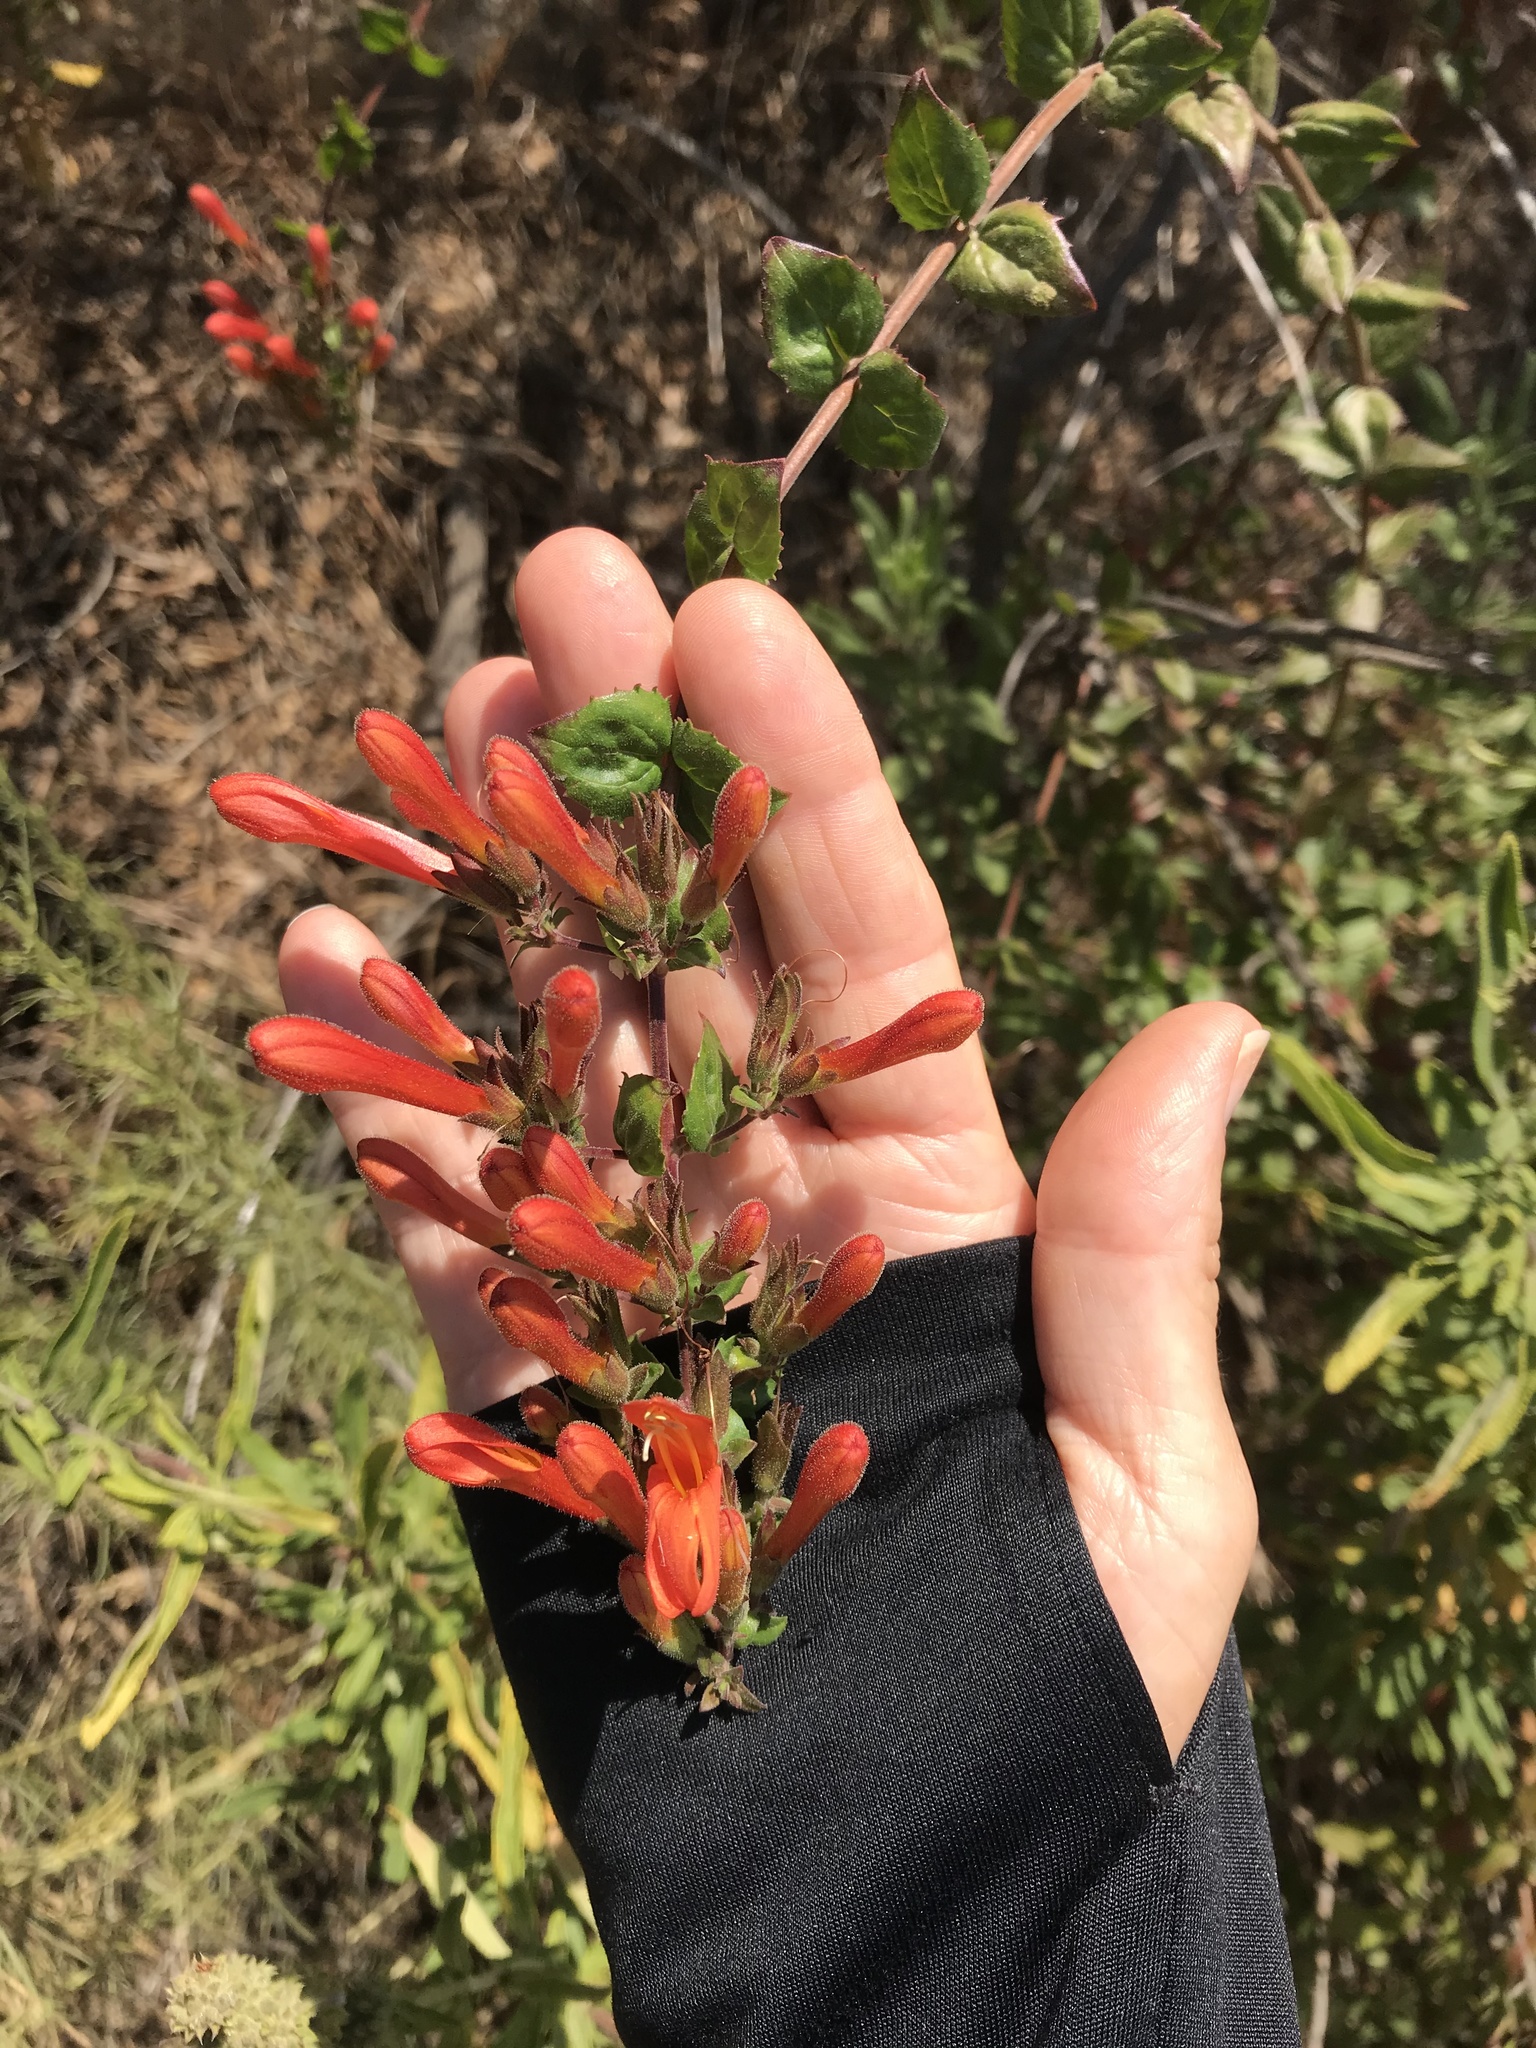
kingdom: Plantae
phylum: Tracheophyta
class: Magnoliopsida
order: Lamiales
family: Plantaginaceae
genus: Keckiella
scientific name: Keckiella cordifolia
